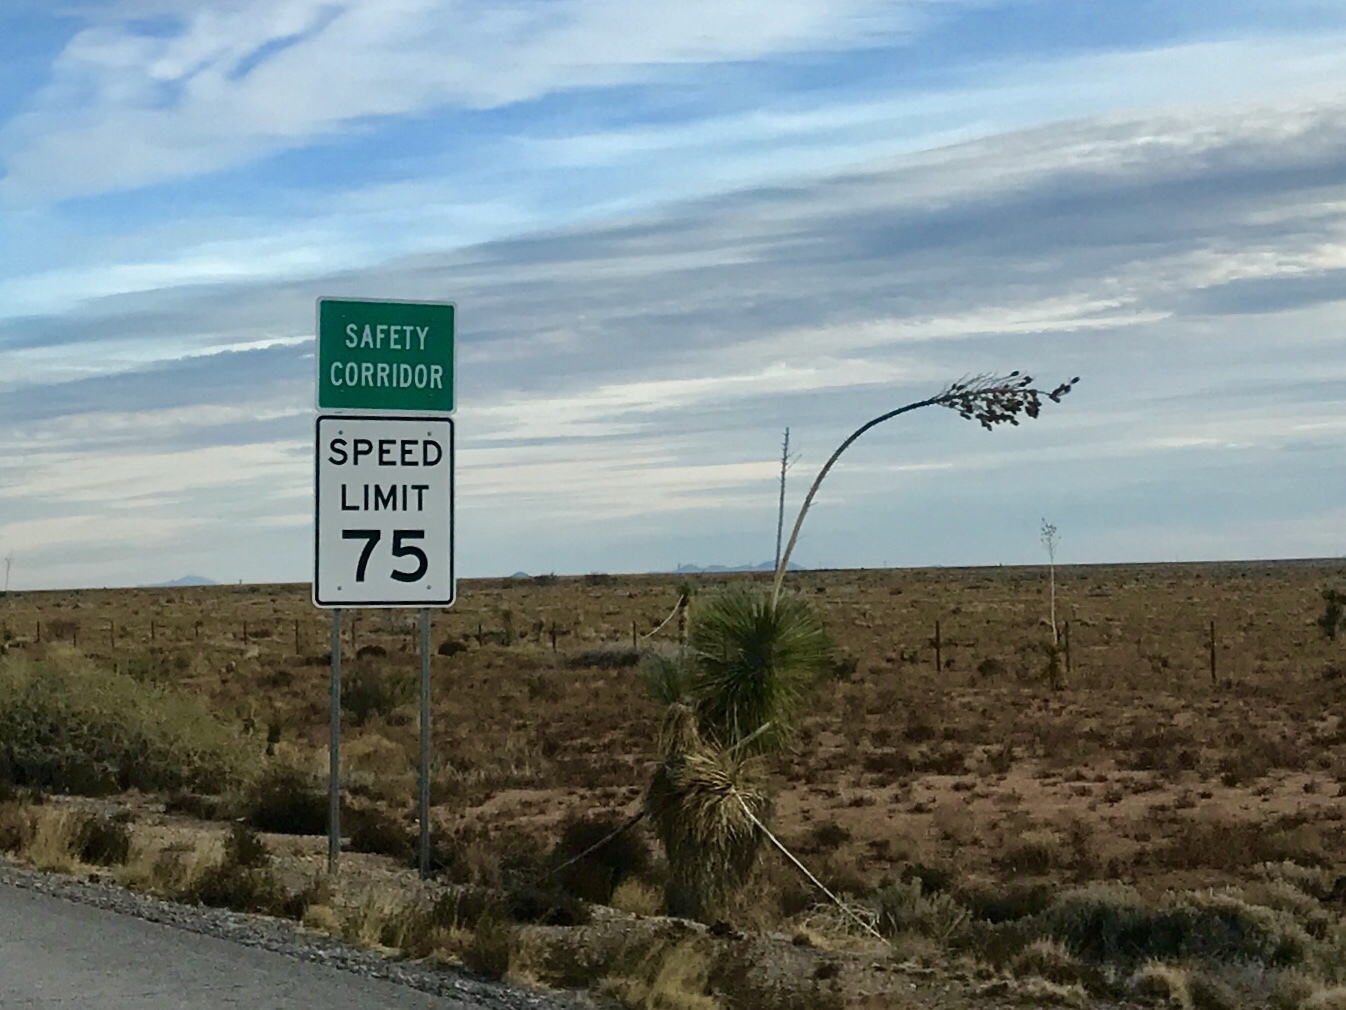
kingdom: Plantae
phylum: Tracheophyta
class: Liliopsida
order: Asparagales
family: Asparagaceae
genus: Yucca
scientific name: Yucca elata
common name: Palmella
